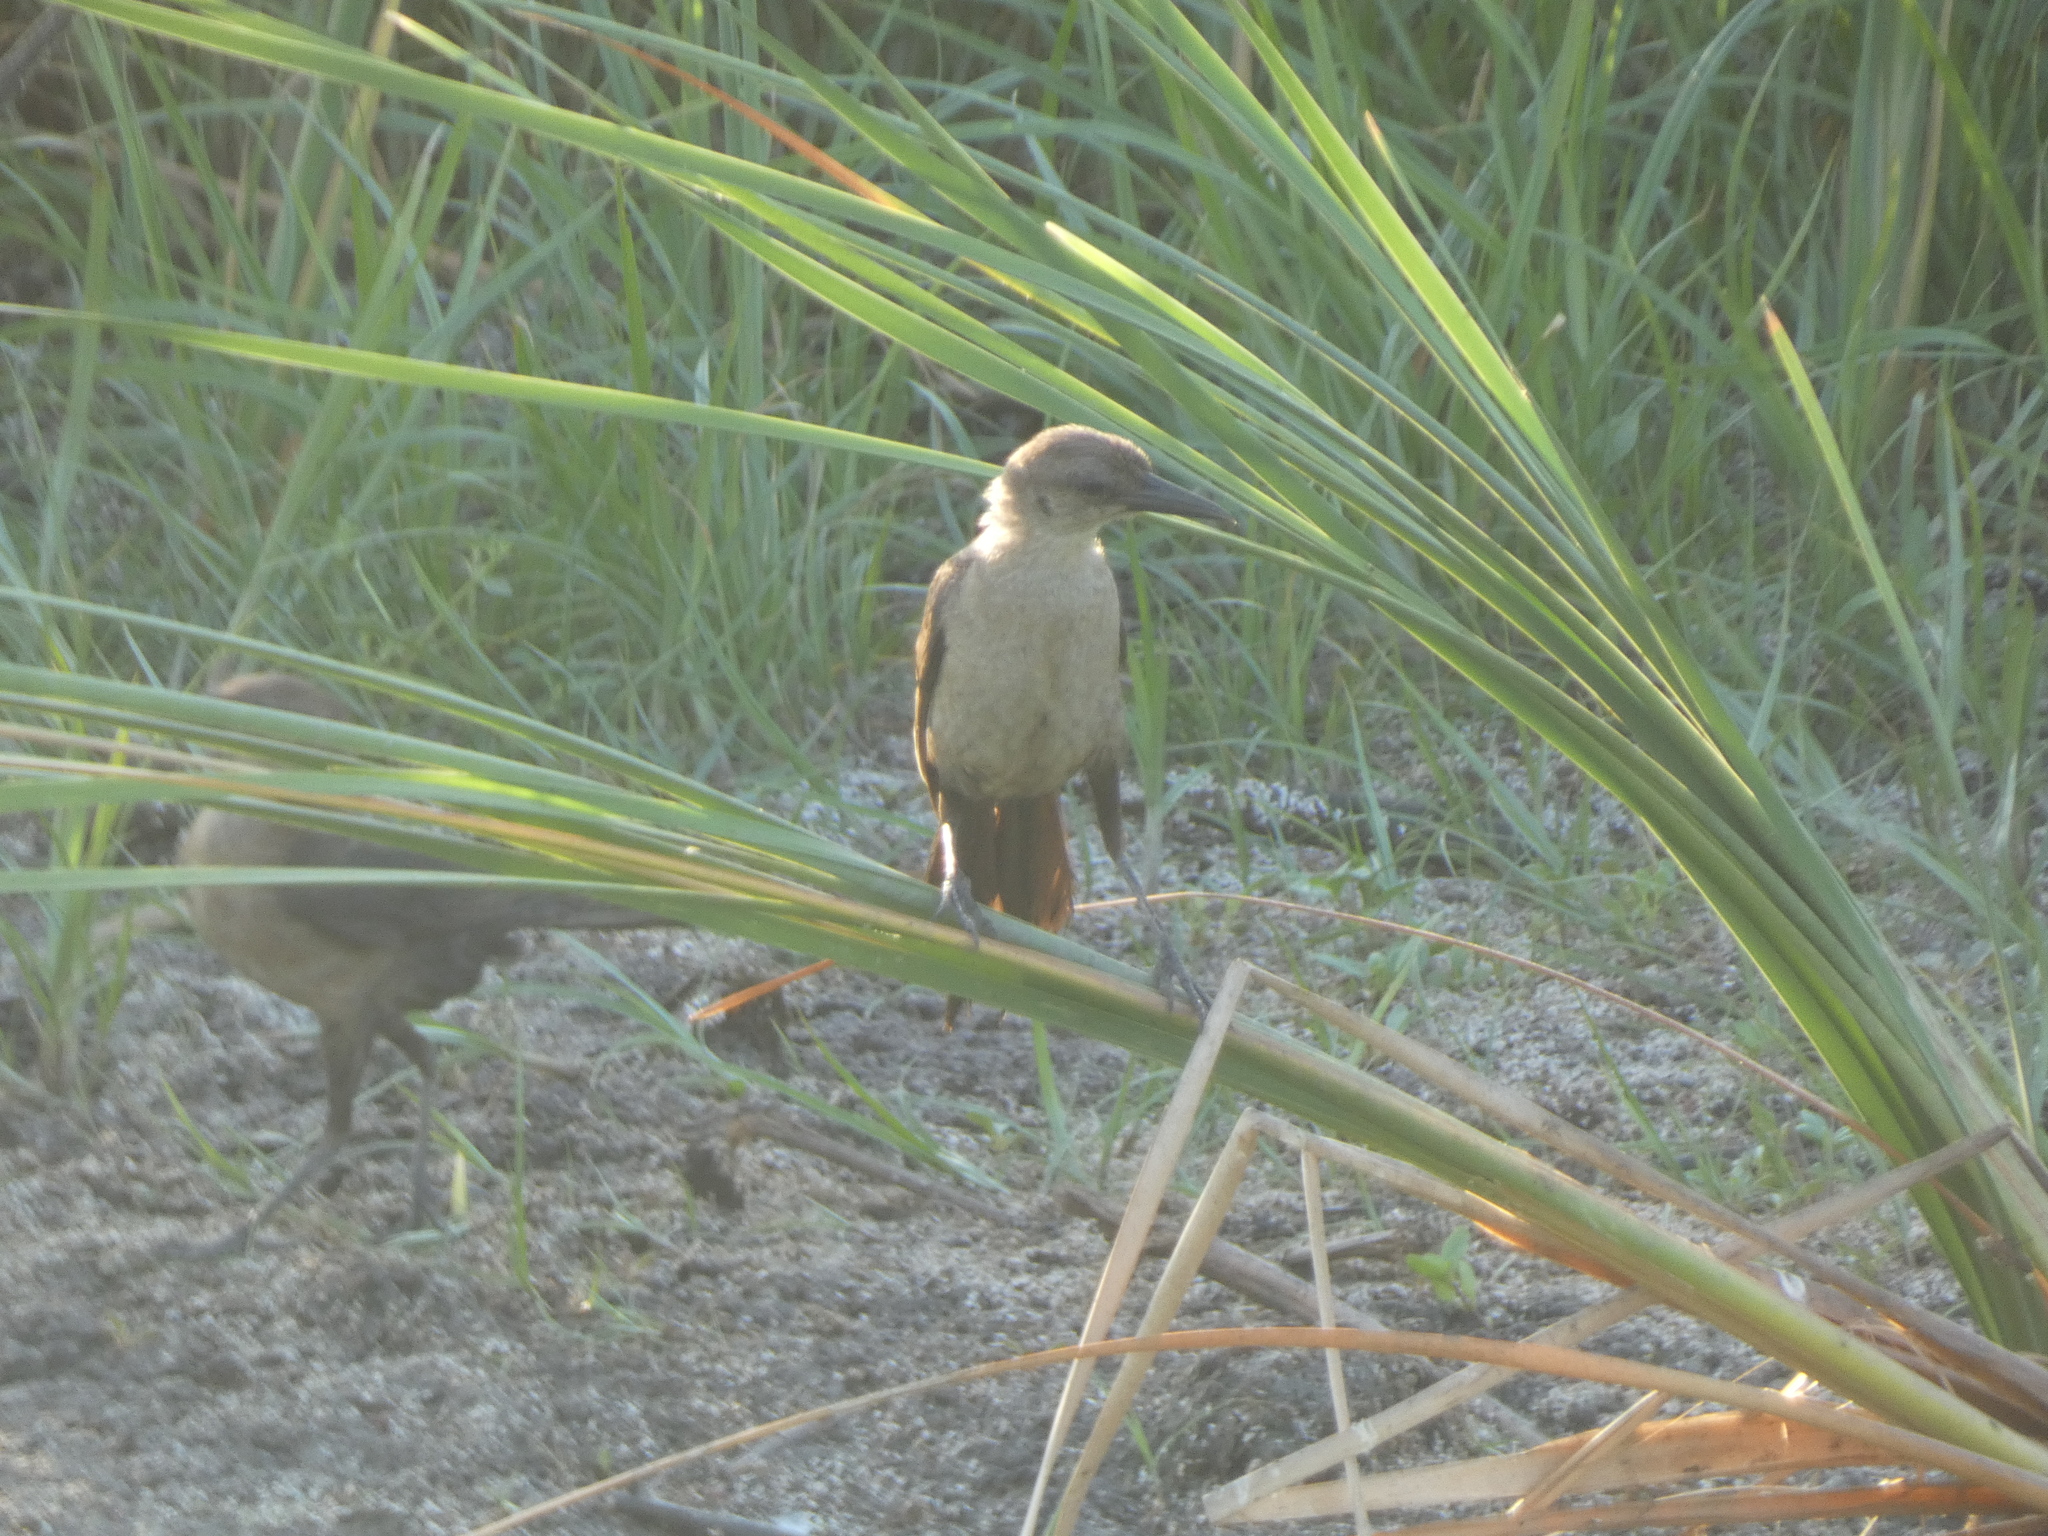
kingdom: Animalia
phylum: Chordata
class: Aves
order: Passeriformes
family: Icteridae
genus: Quiscalus
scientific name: Quiscalus major
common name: Boat-tailed grackle
